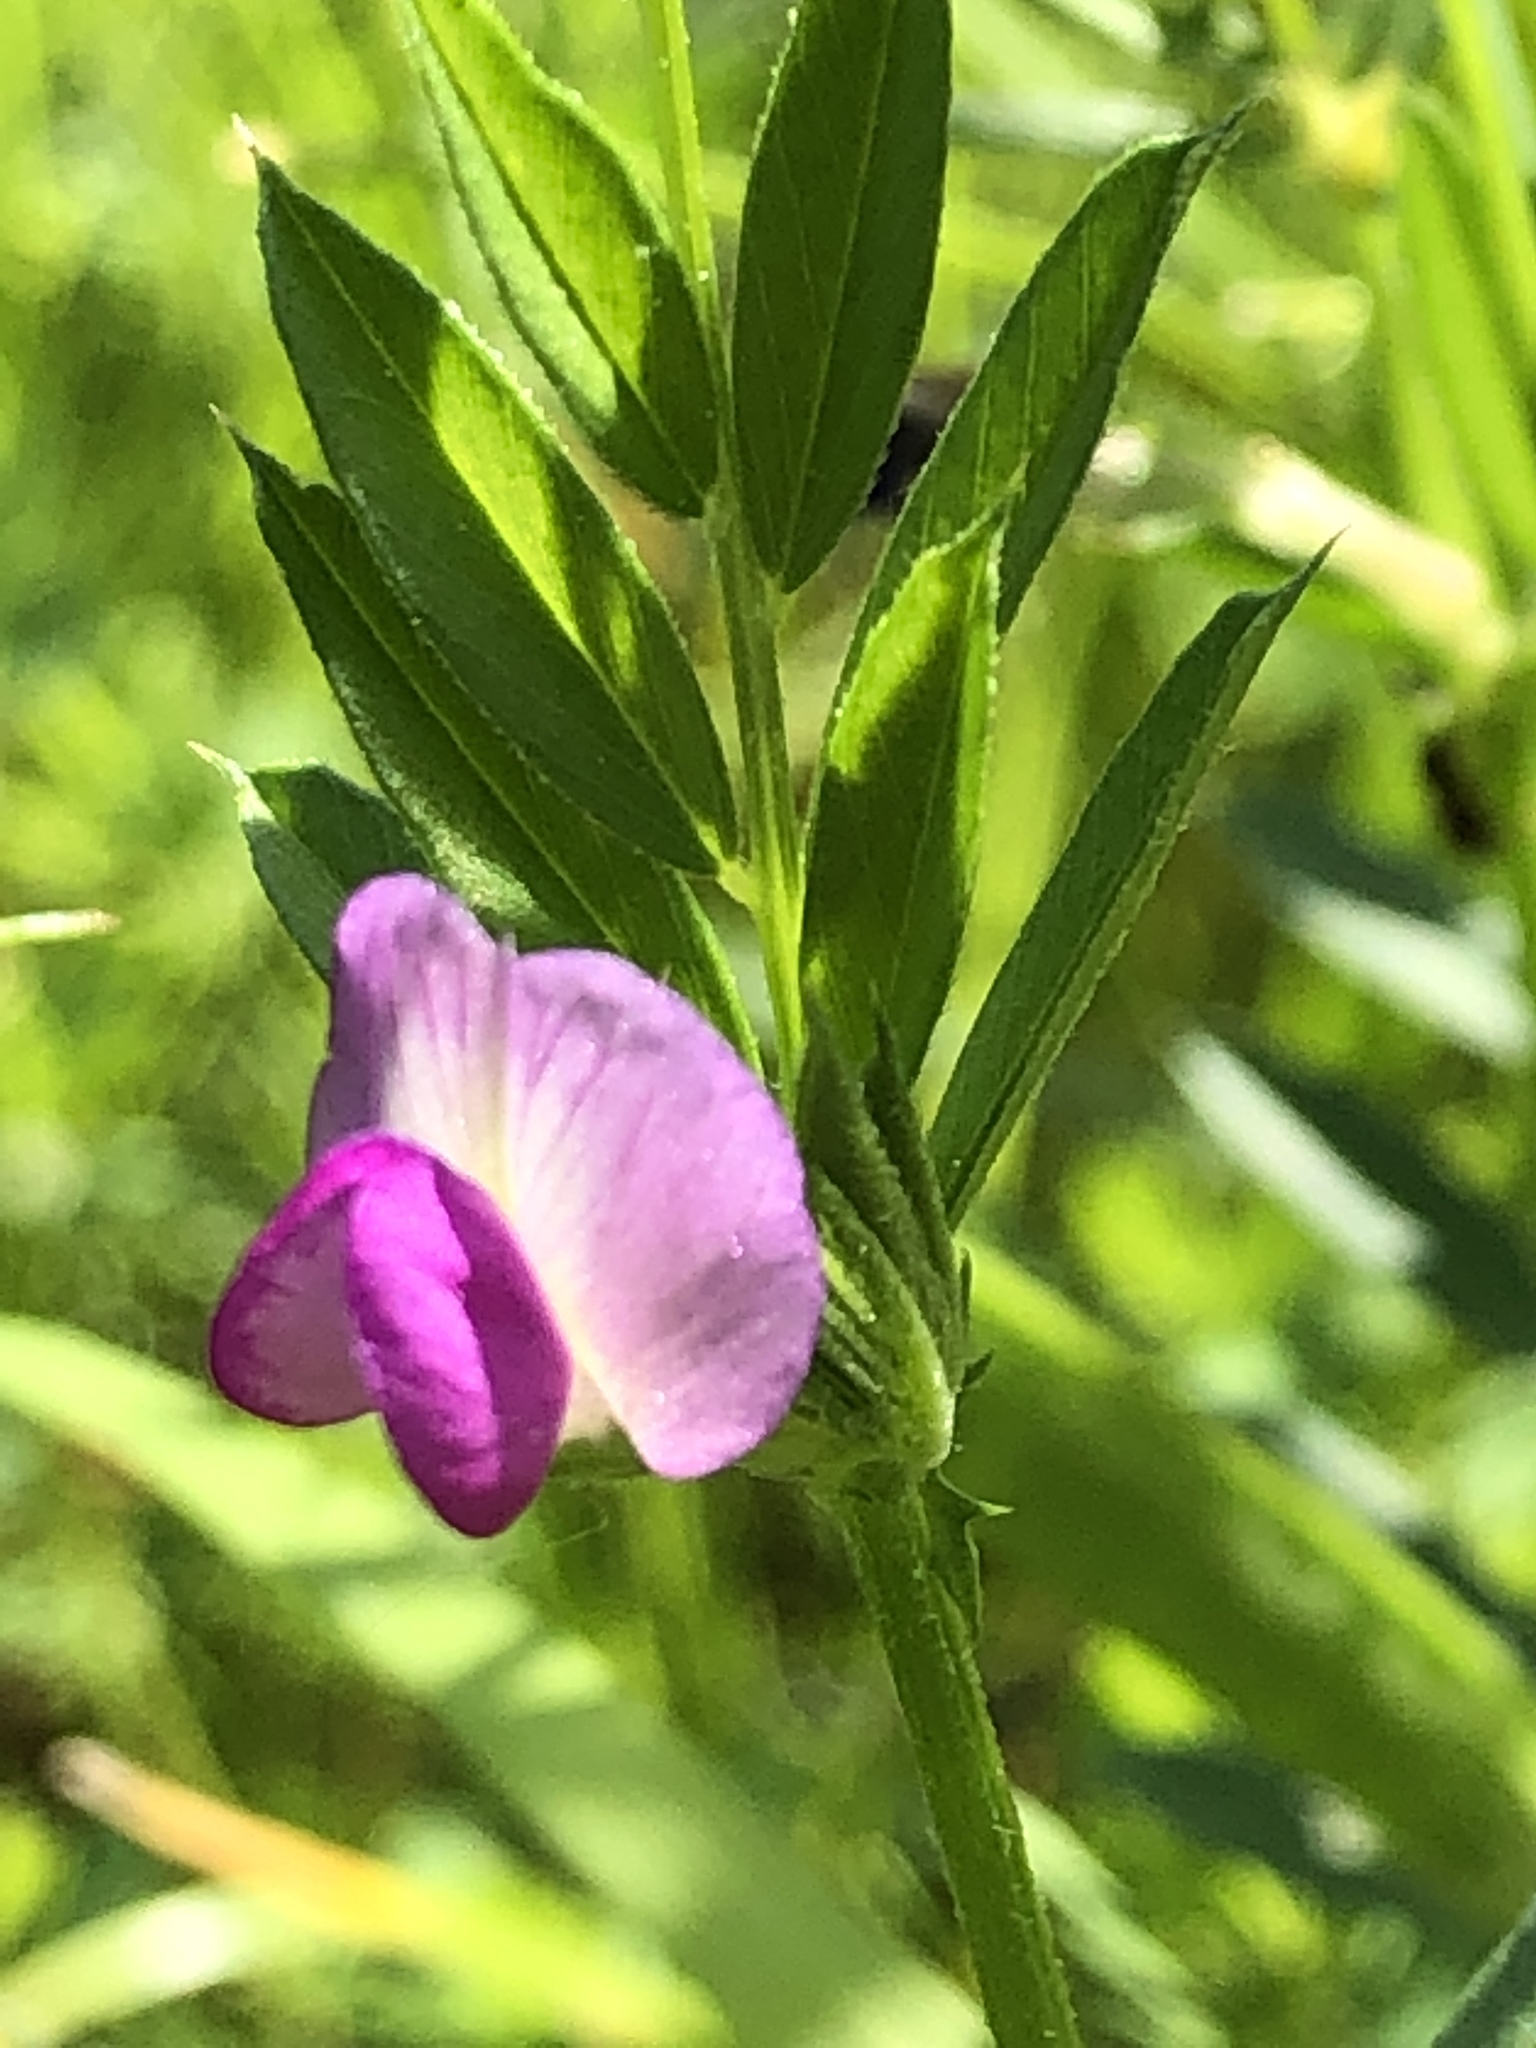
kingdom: Plantae
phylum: Tracheophyta
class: Magnoliopsida
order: Fabales
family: Fabaceae
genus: Vicia
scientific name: Vicia sativa
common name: Garden vetch
